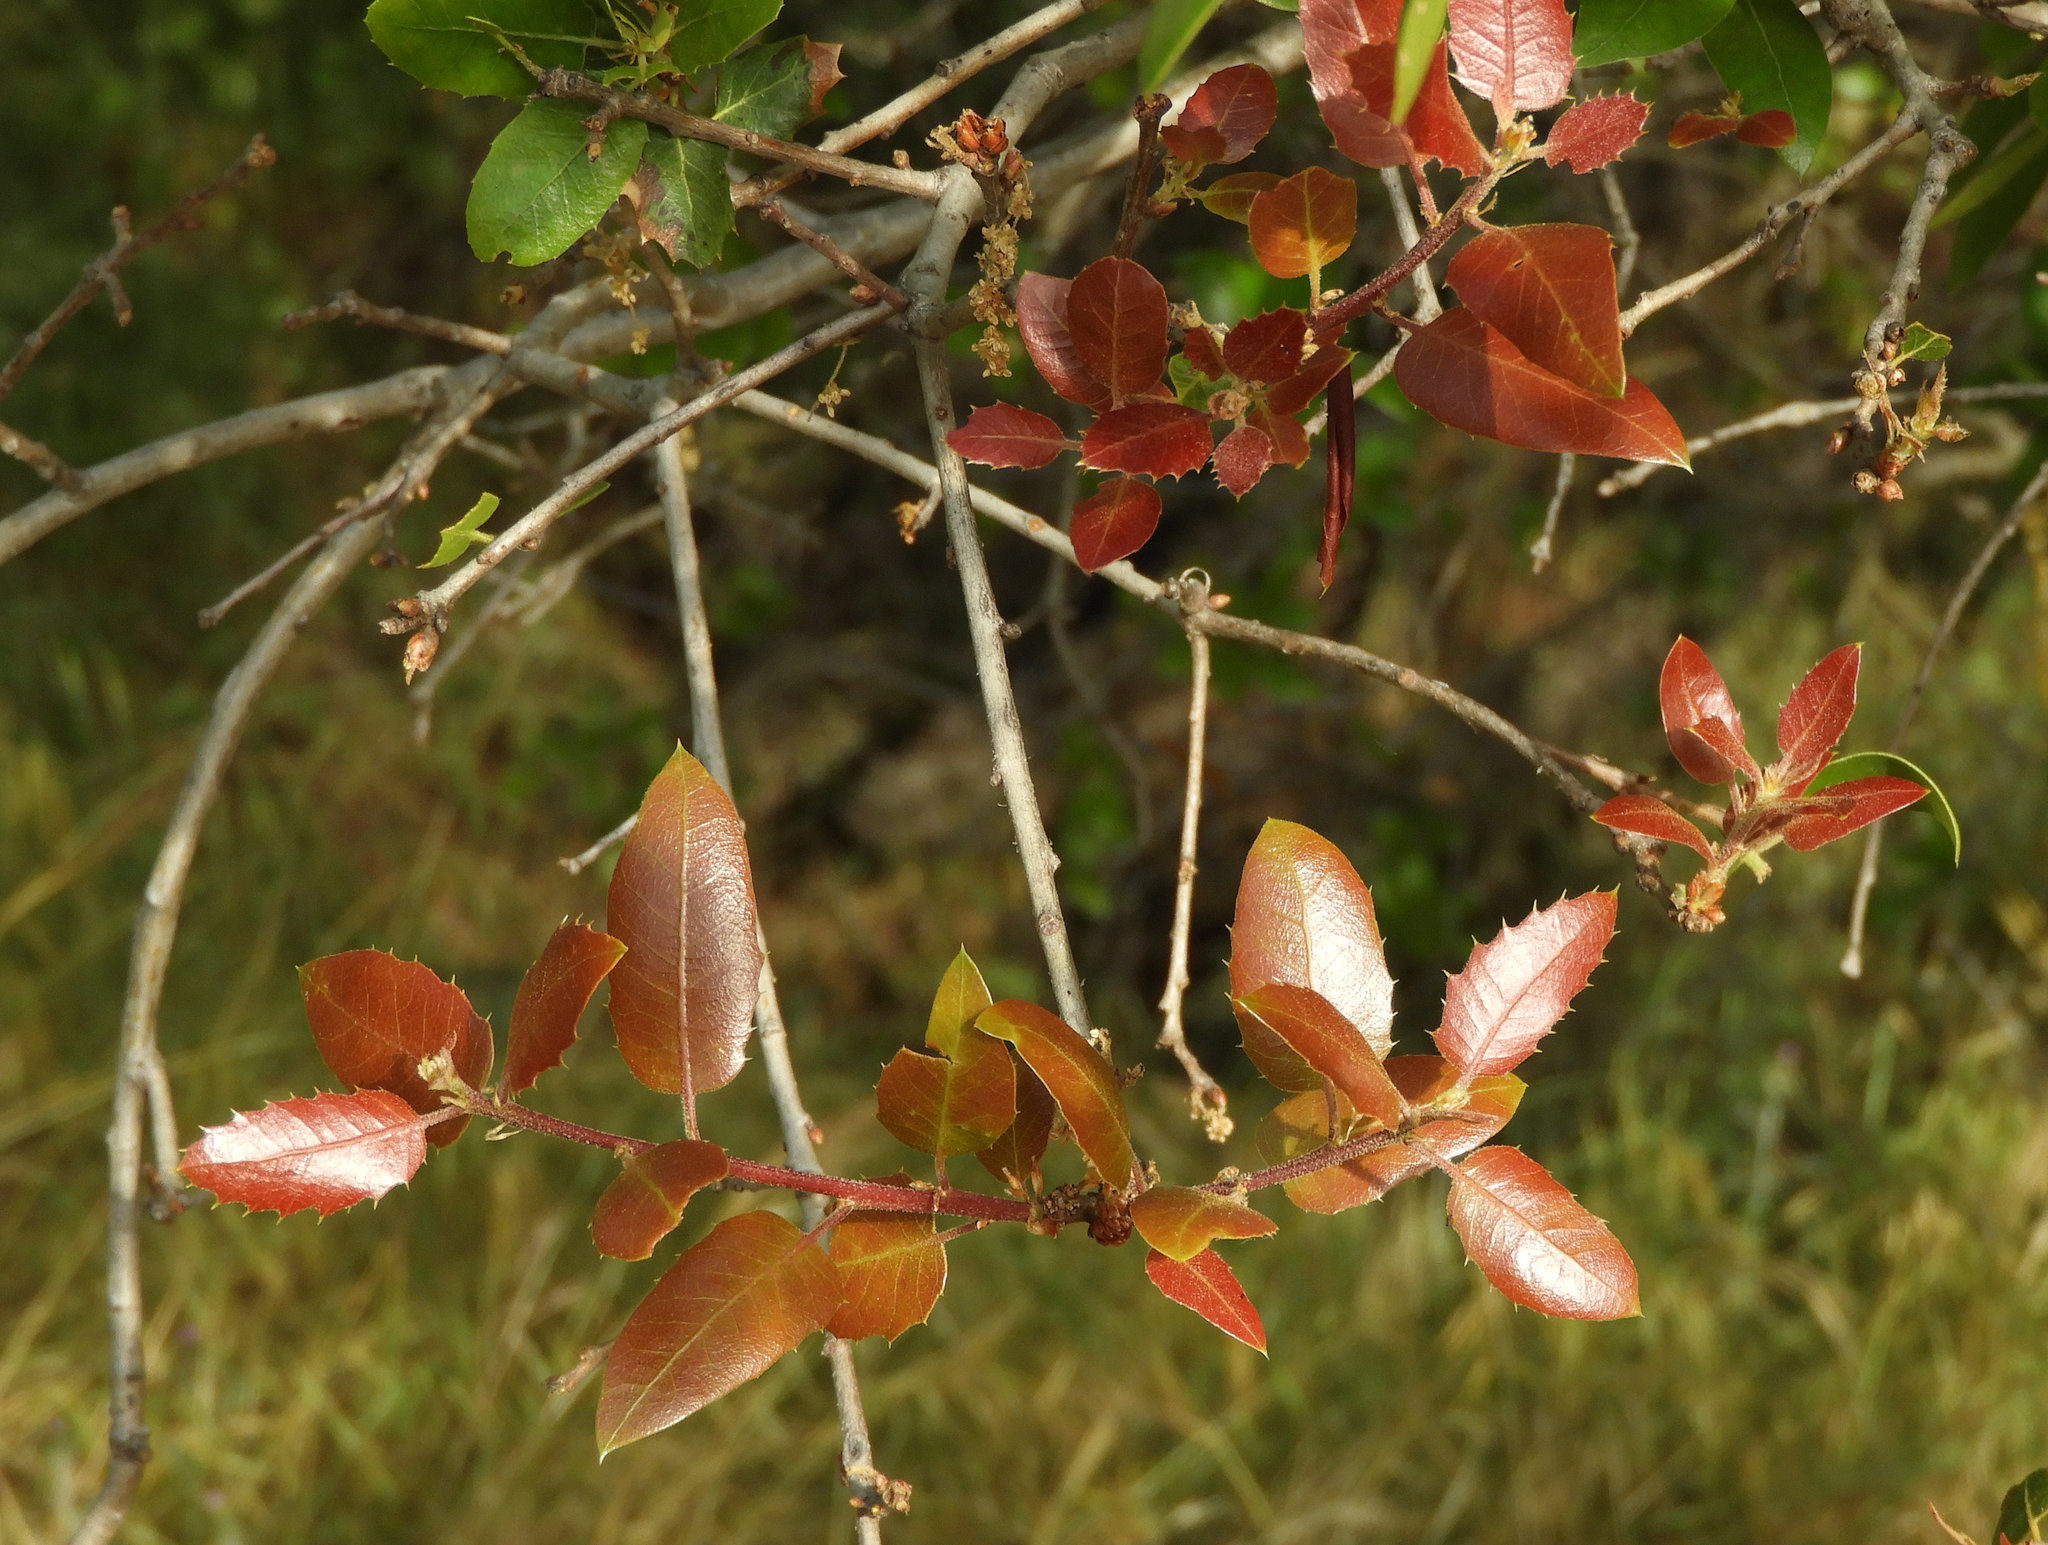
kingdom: Plantae
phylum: Tracheophyta
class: Magnoliopsida
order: Fagales
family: Fagaceae
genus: Quercus
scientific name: Quercus wislizeni
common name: Interior live oak
